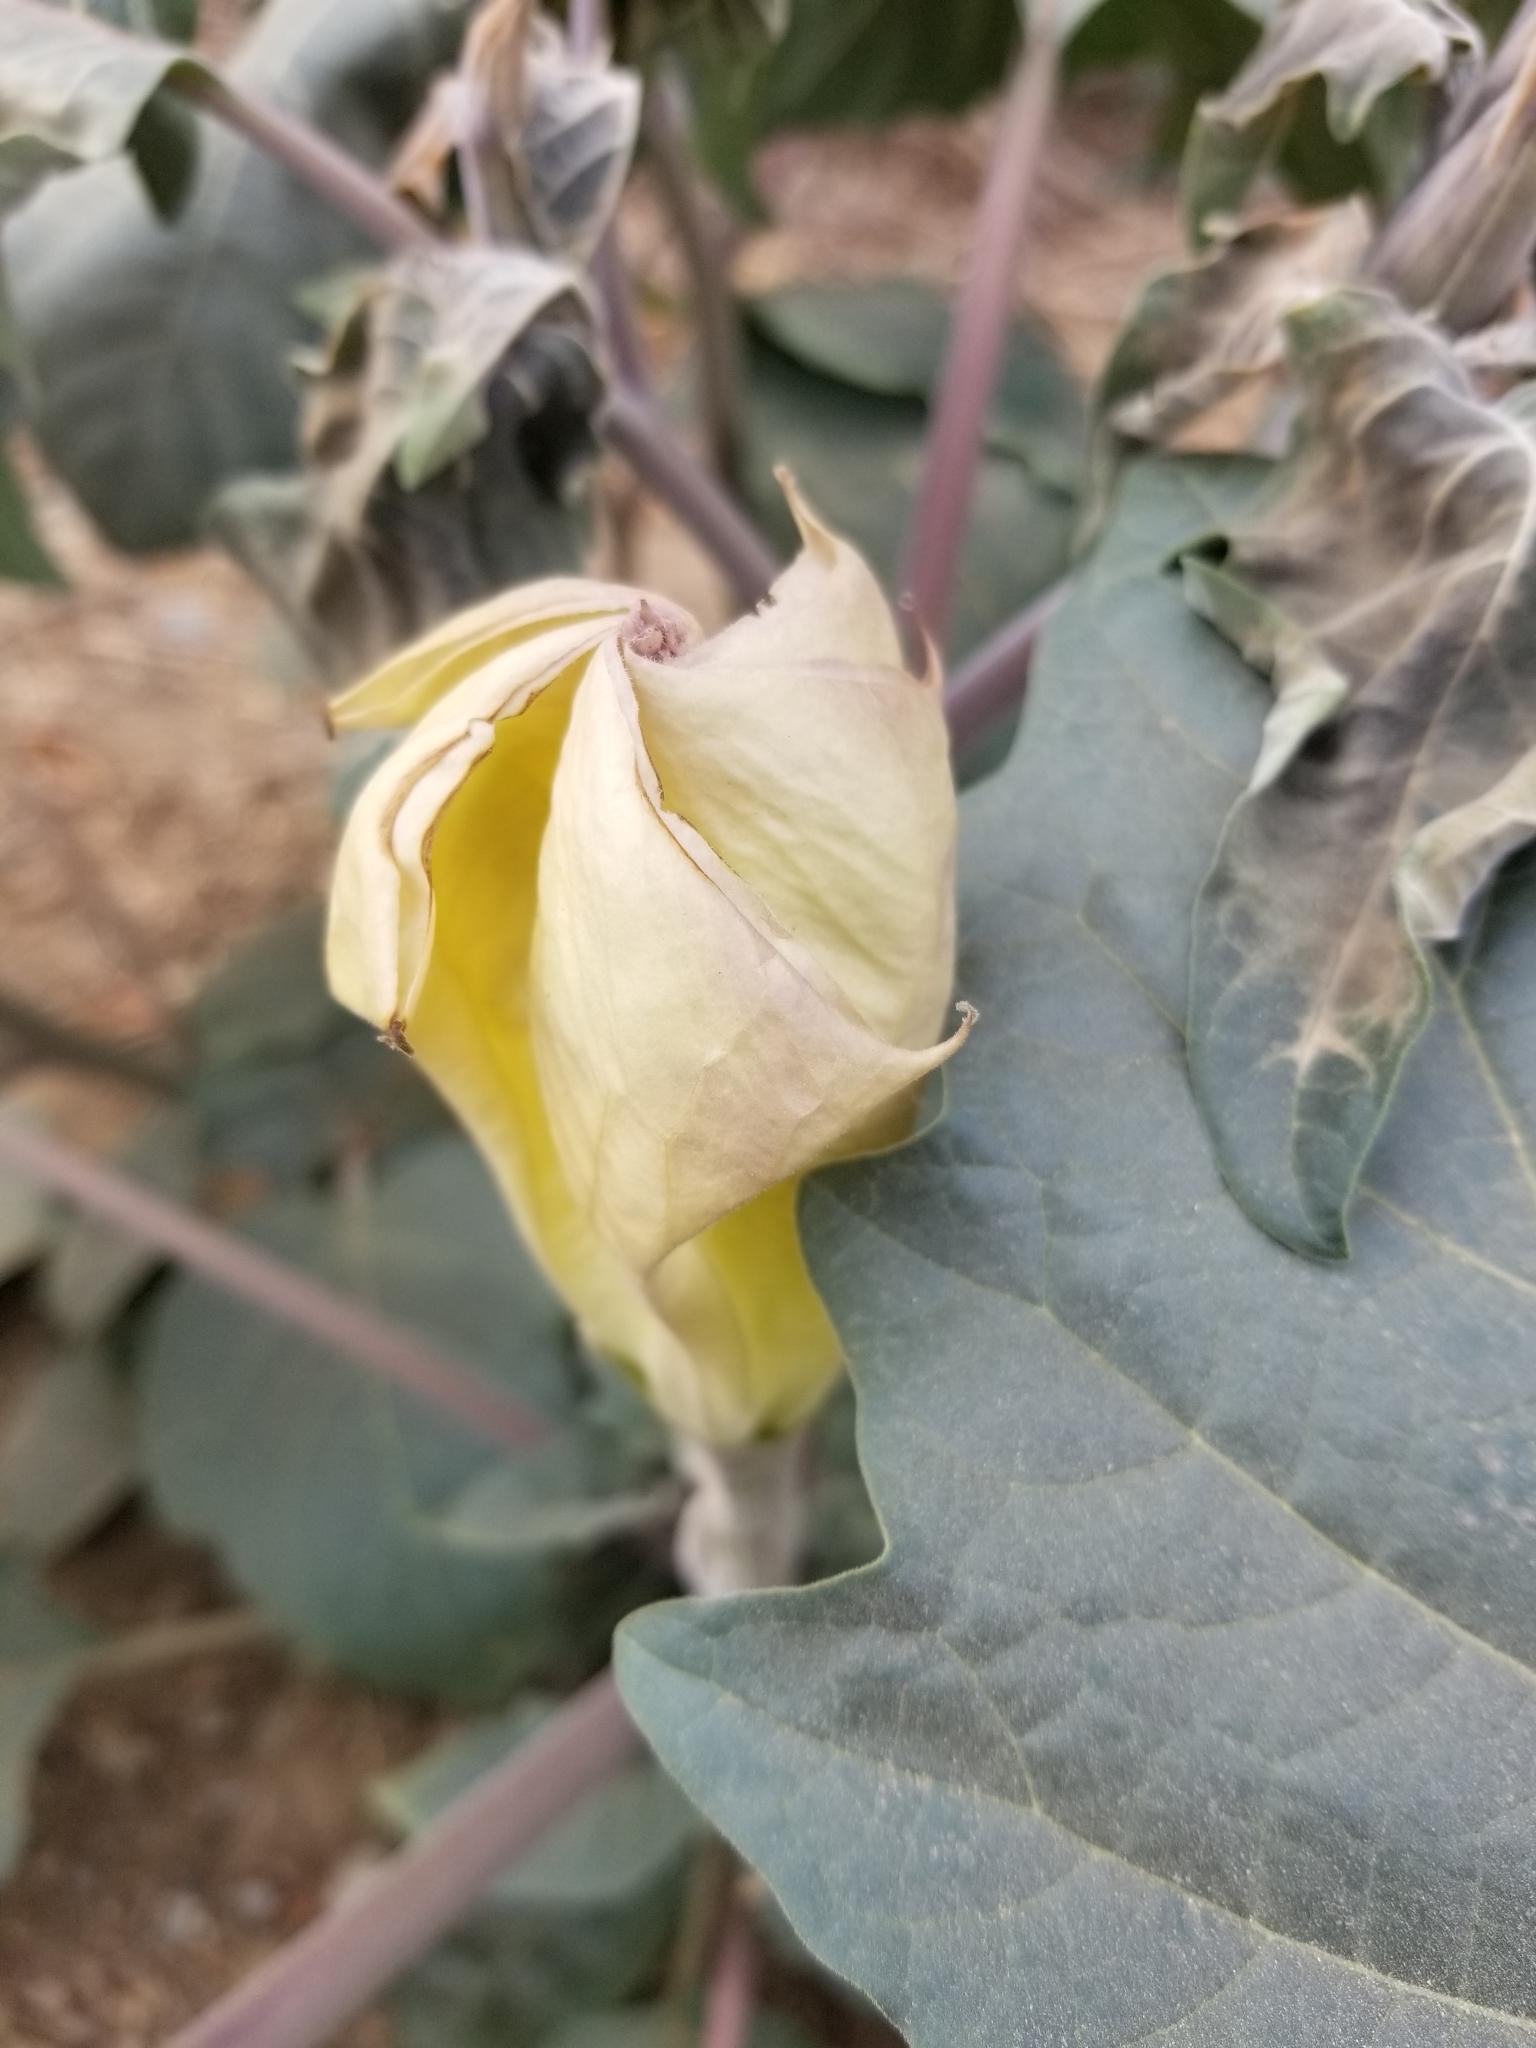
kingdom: Plantae
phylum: Tracheophyta
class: Magnoliopsida
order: Solanales
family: Solanaceae
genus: Datura
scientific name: Datura wrightii
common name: Sacred thorn-apple
